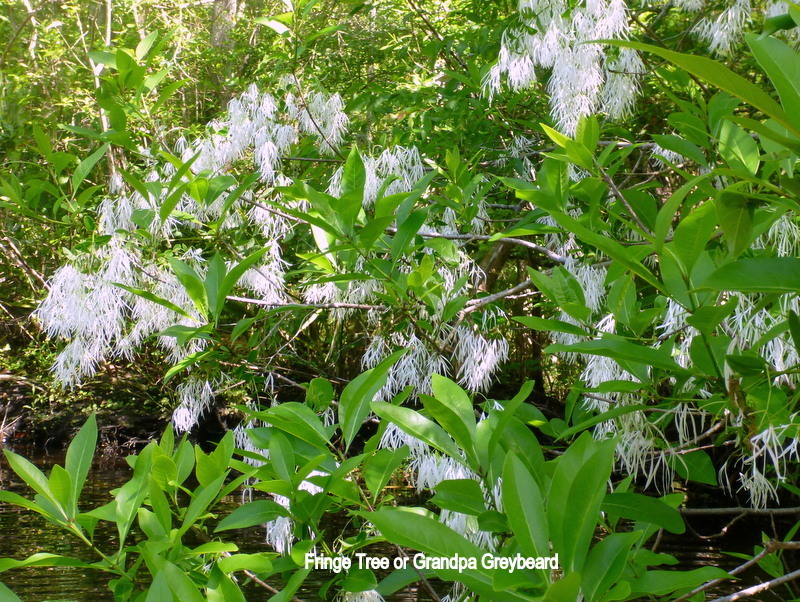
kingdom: Plantae
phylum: Tracheophyta
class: Magnoliopsida
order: Lamiales
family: Oleaceae
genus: Chionanthus
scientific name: Chionanthus virginicus
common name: American fringetree
